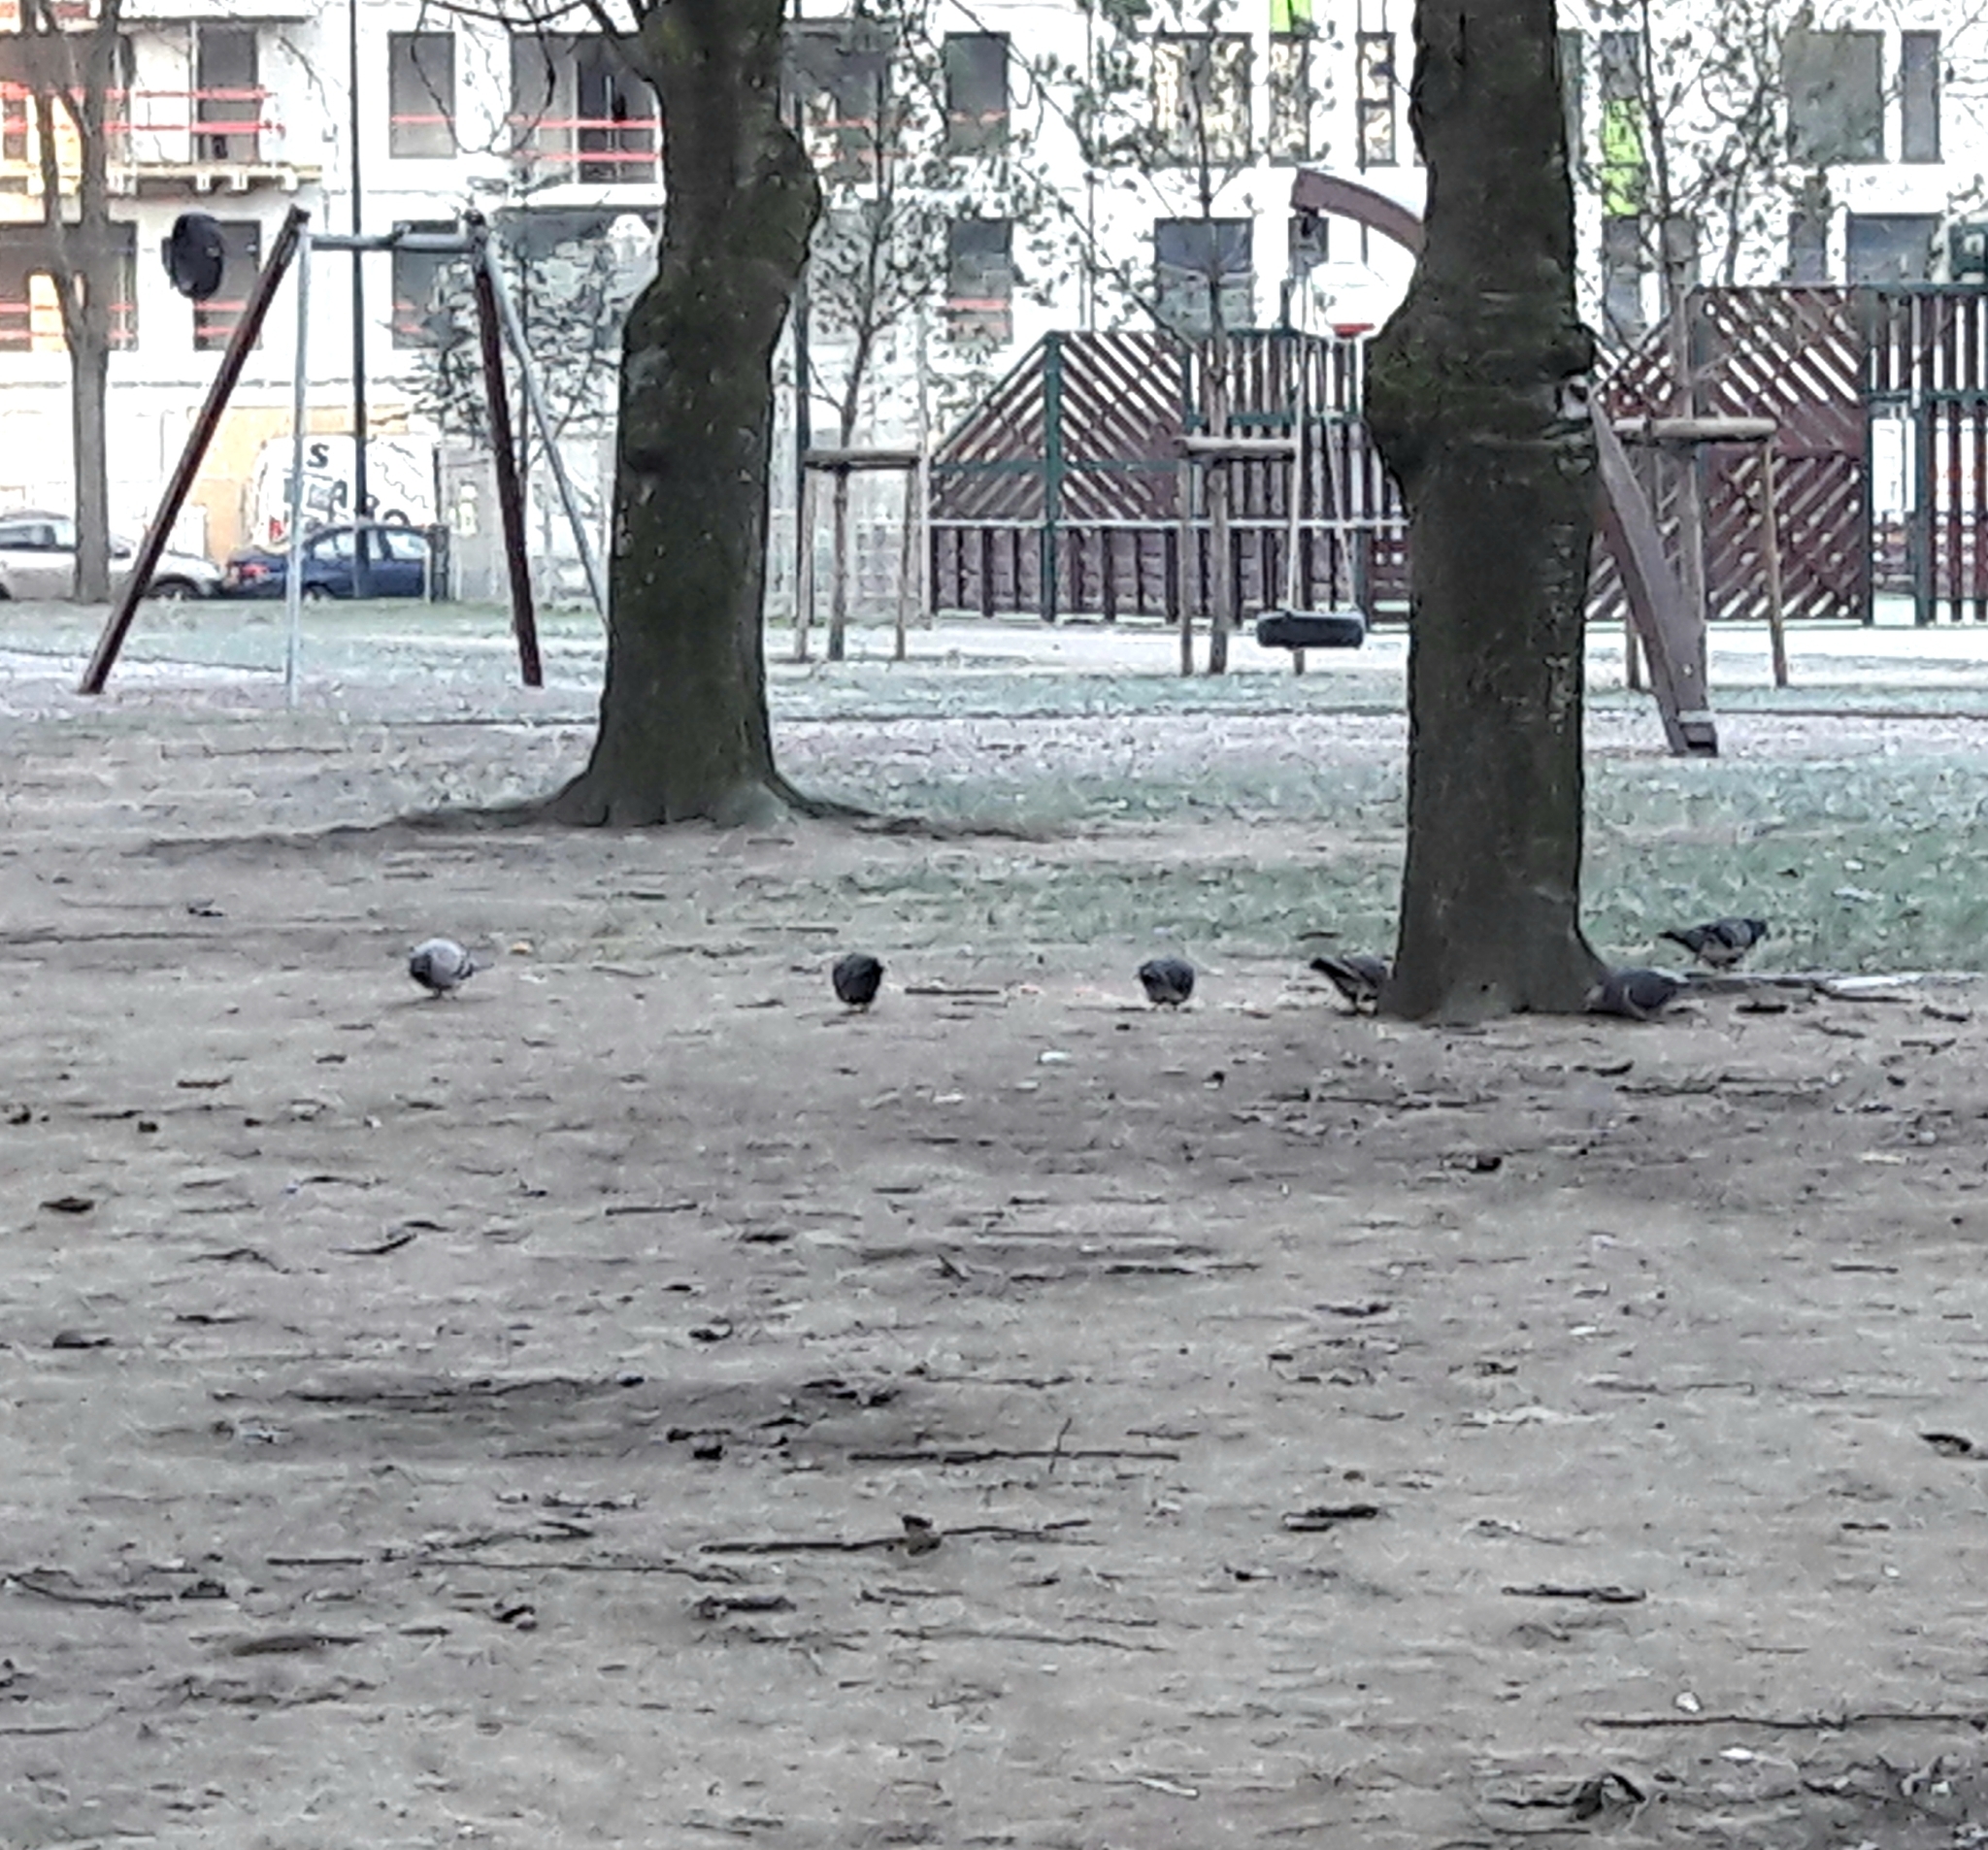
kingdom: Animalia
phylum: Chordata
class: Aves
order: Columbiformes
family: Columbidae
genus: Columba
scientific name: Columba livia
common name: Rock pigeon
